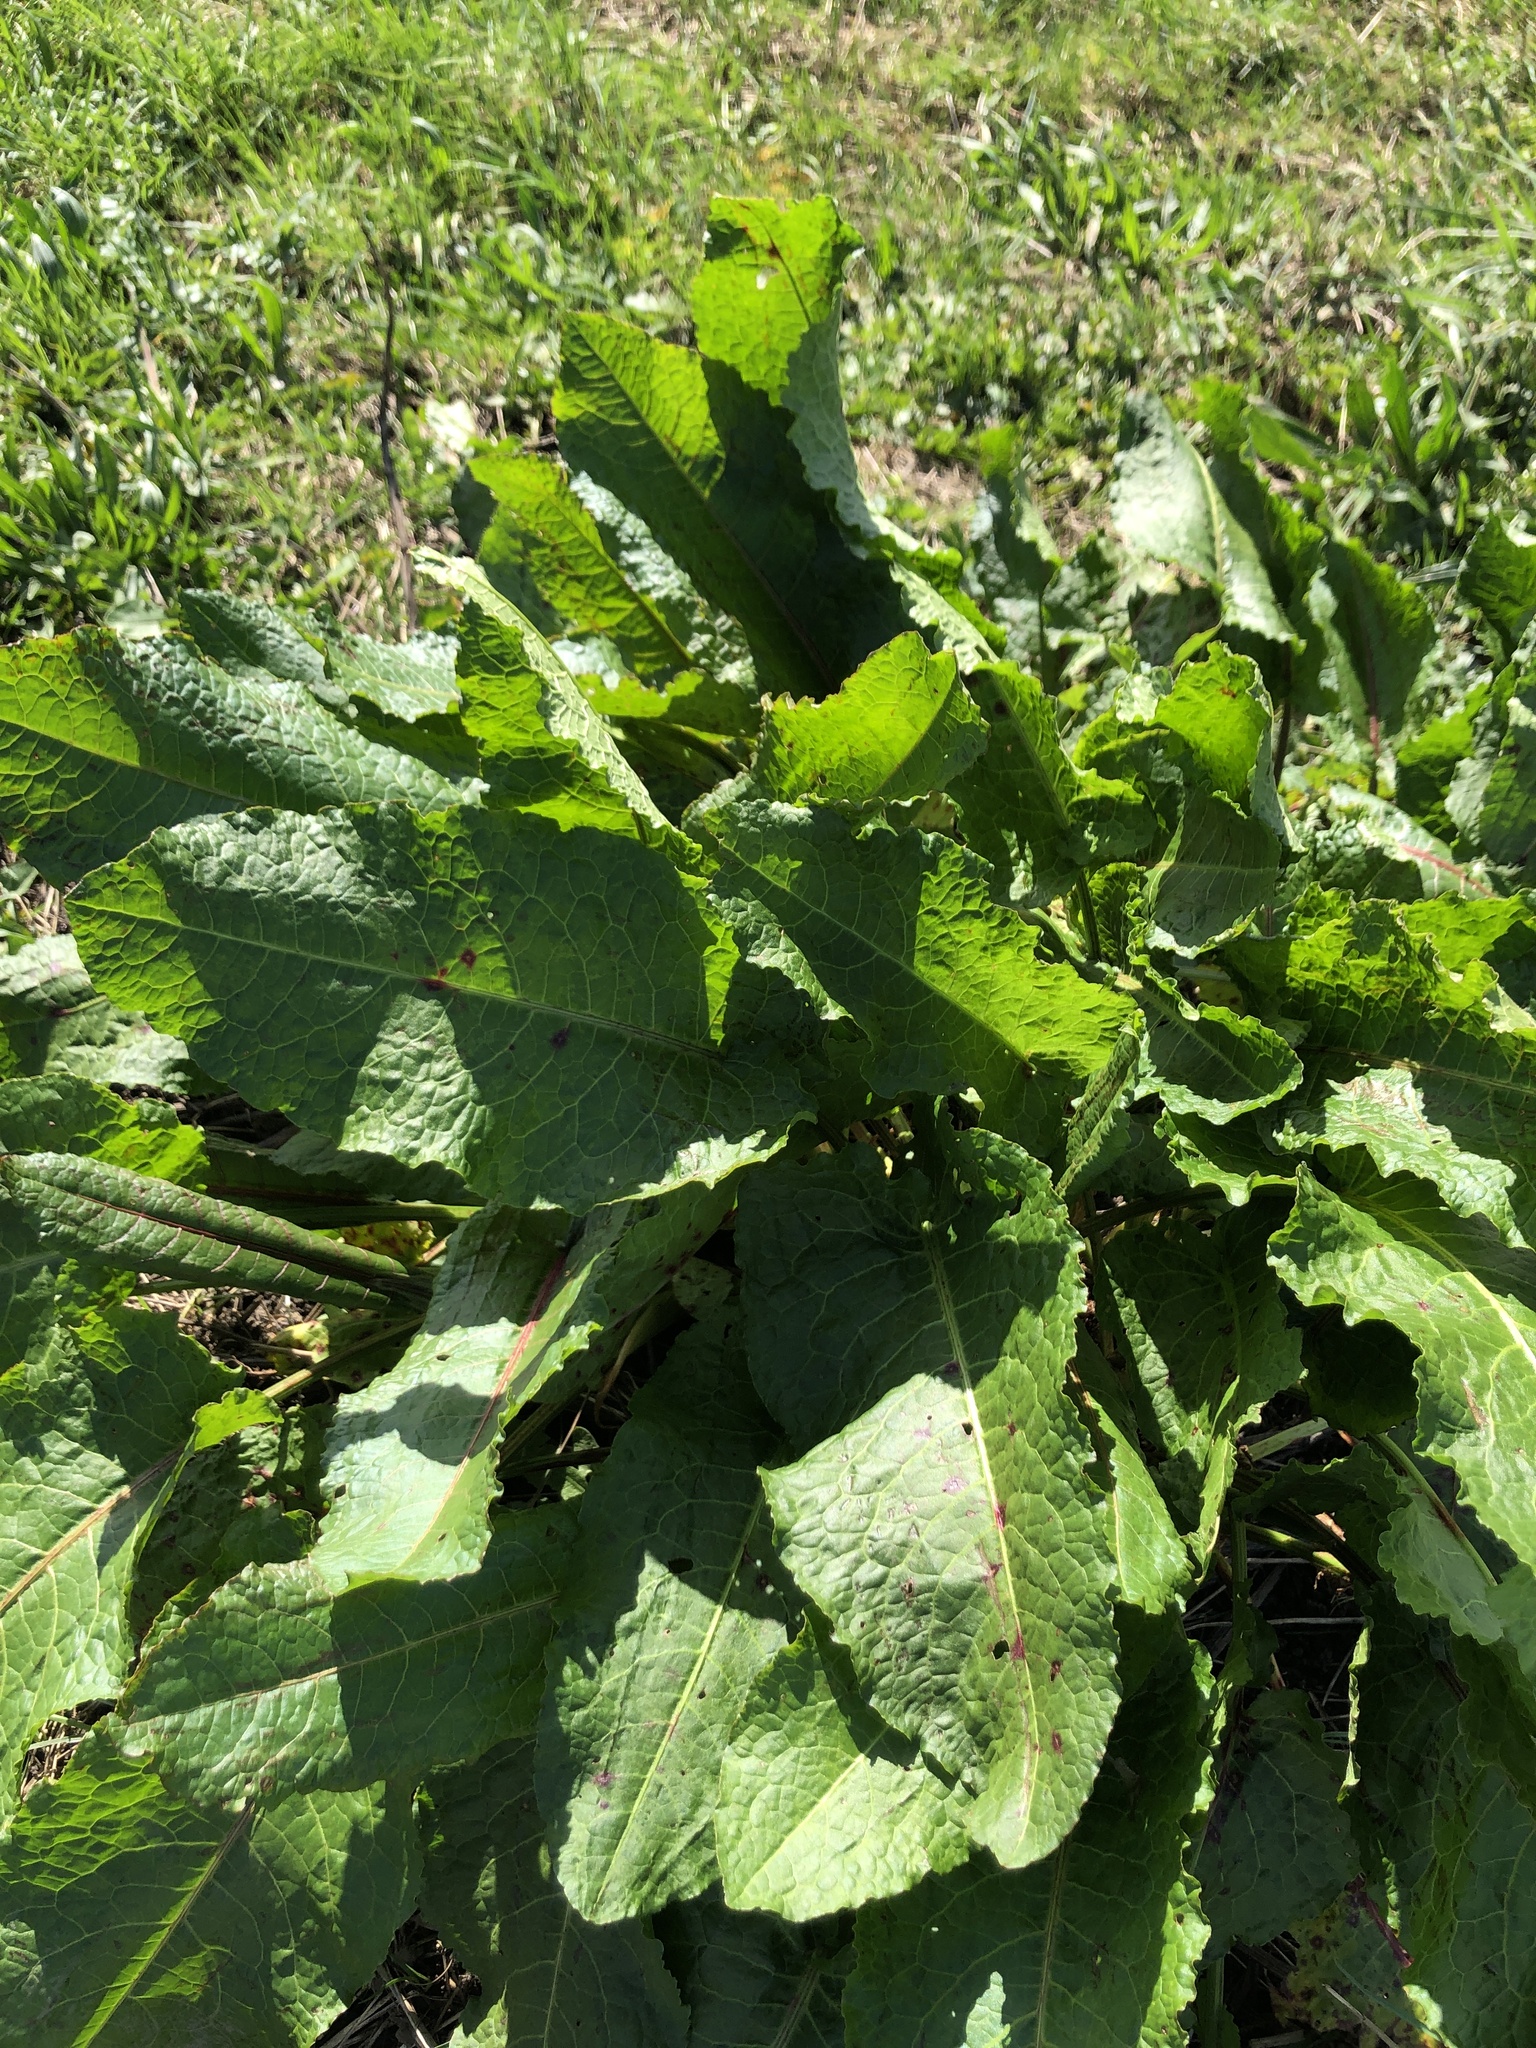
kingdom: Plantae
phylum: Tracheophyta
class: Magnoliopsida
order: Caryophyllales
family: Polygonaceae
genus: Rumex
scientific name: Rumex obtusifolius
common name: Bitter dock
